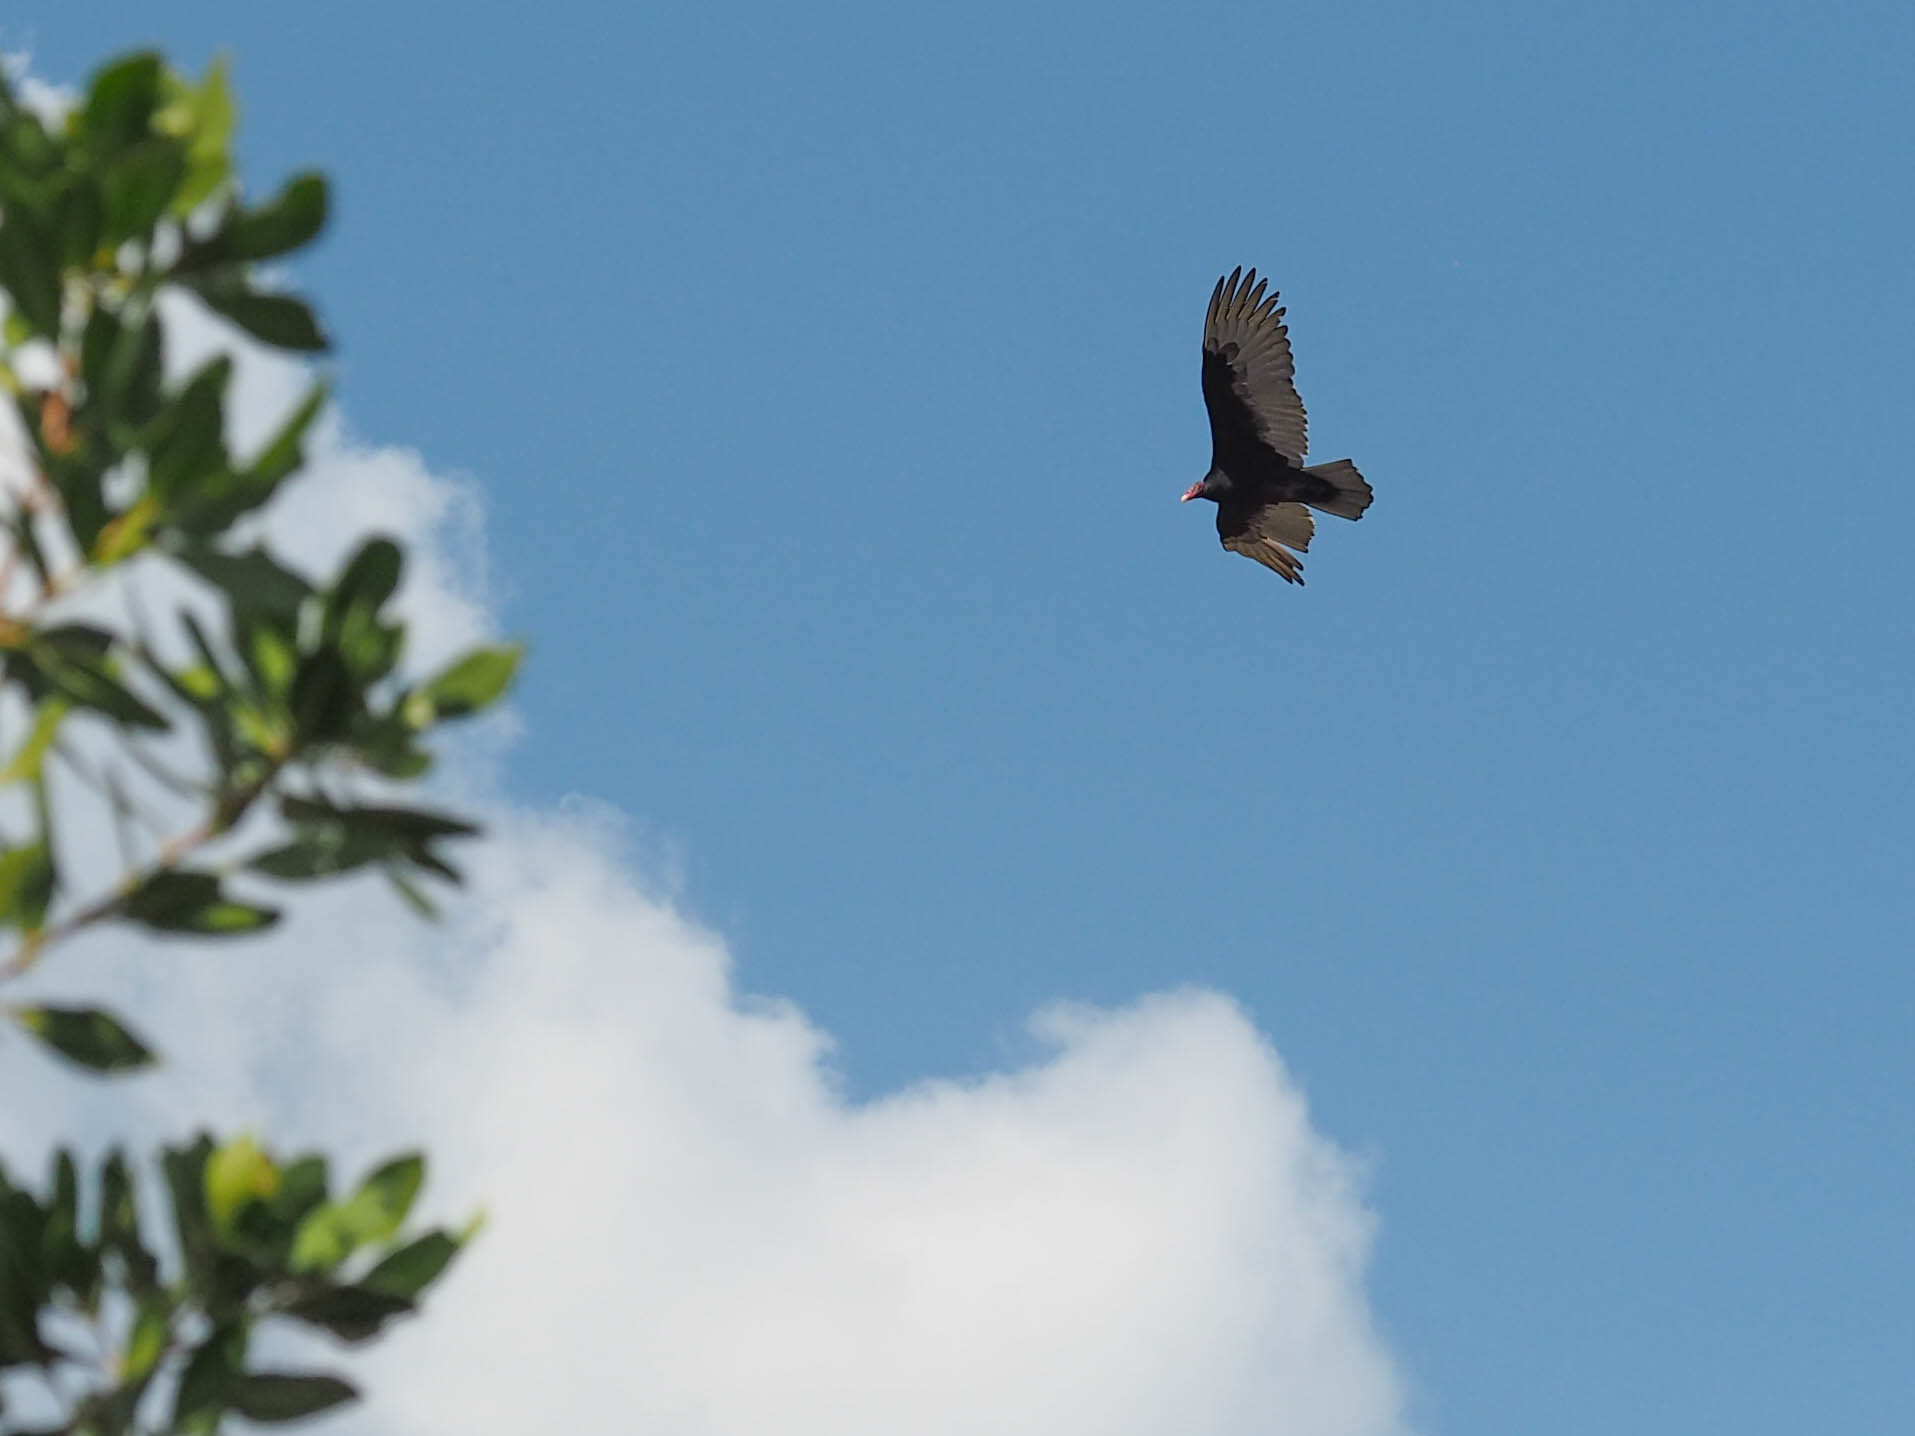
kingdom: Animalia
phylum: Chordata
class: Aves
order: Accipitriformes
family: Cathartidae
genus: Cathartes
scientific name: Cathartes aura
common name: Turkey vulture
